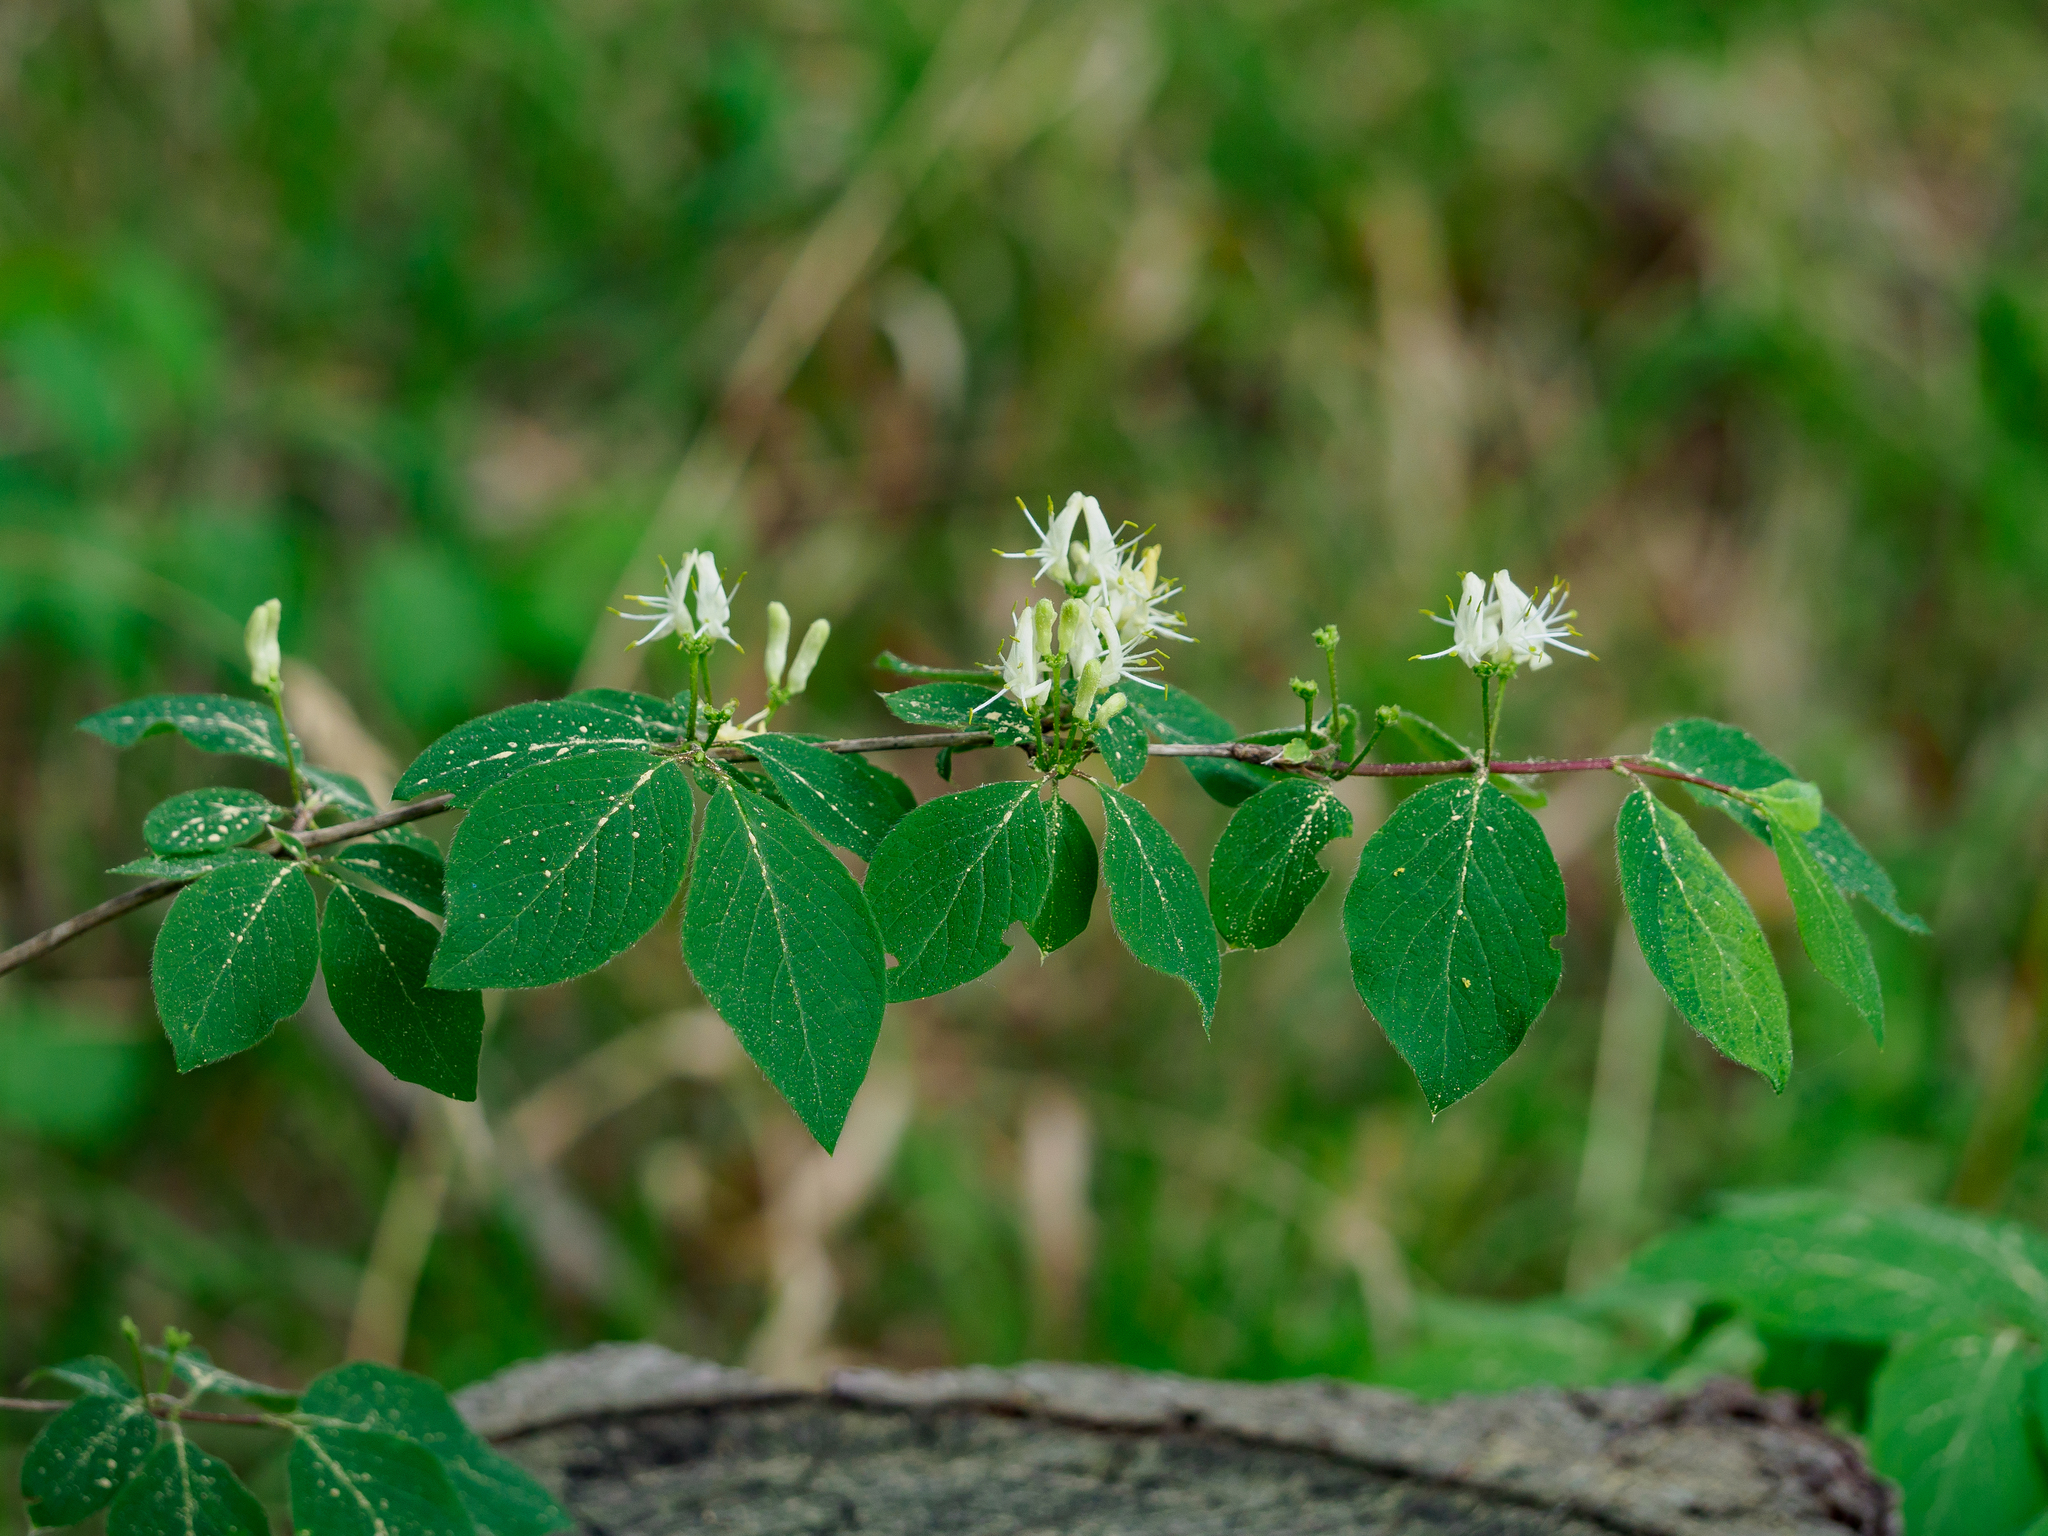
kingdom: Plantae
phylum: Tracheophyta
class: Magnoliopsida
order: Dipsacales
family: Caprifoliaceae
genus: Lonicera
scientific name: Lonicera xylosteum
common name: Fly honeysuckle
